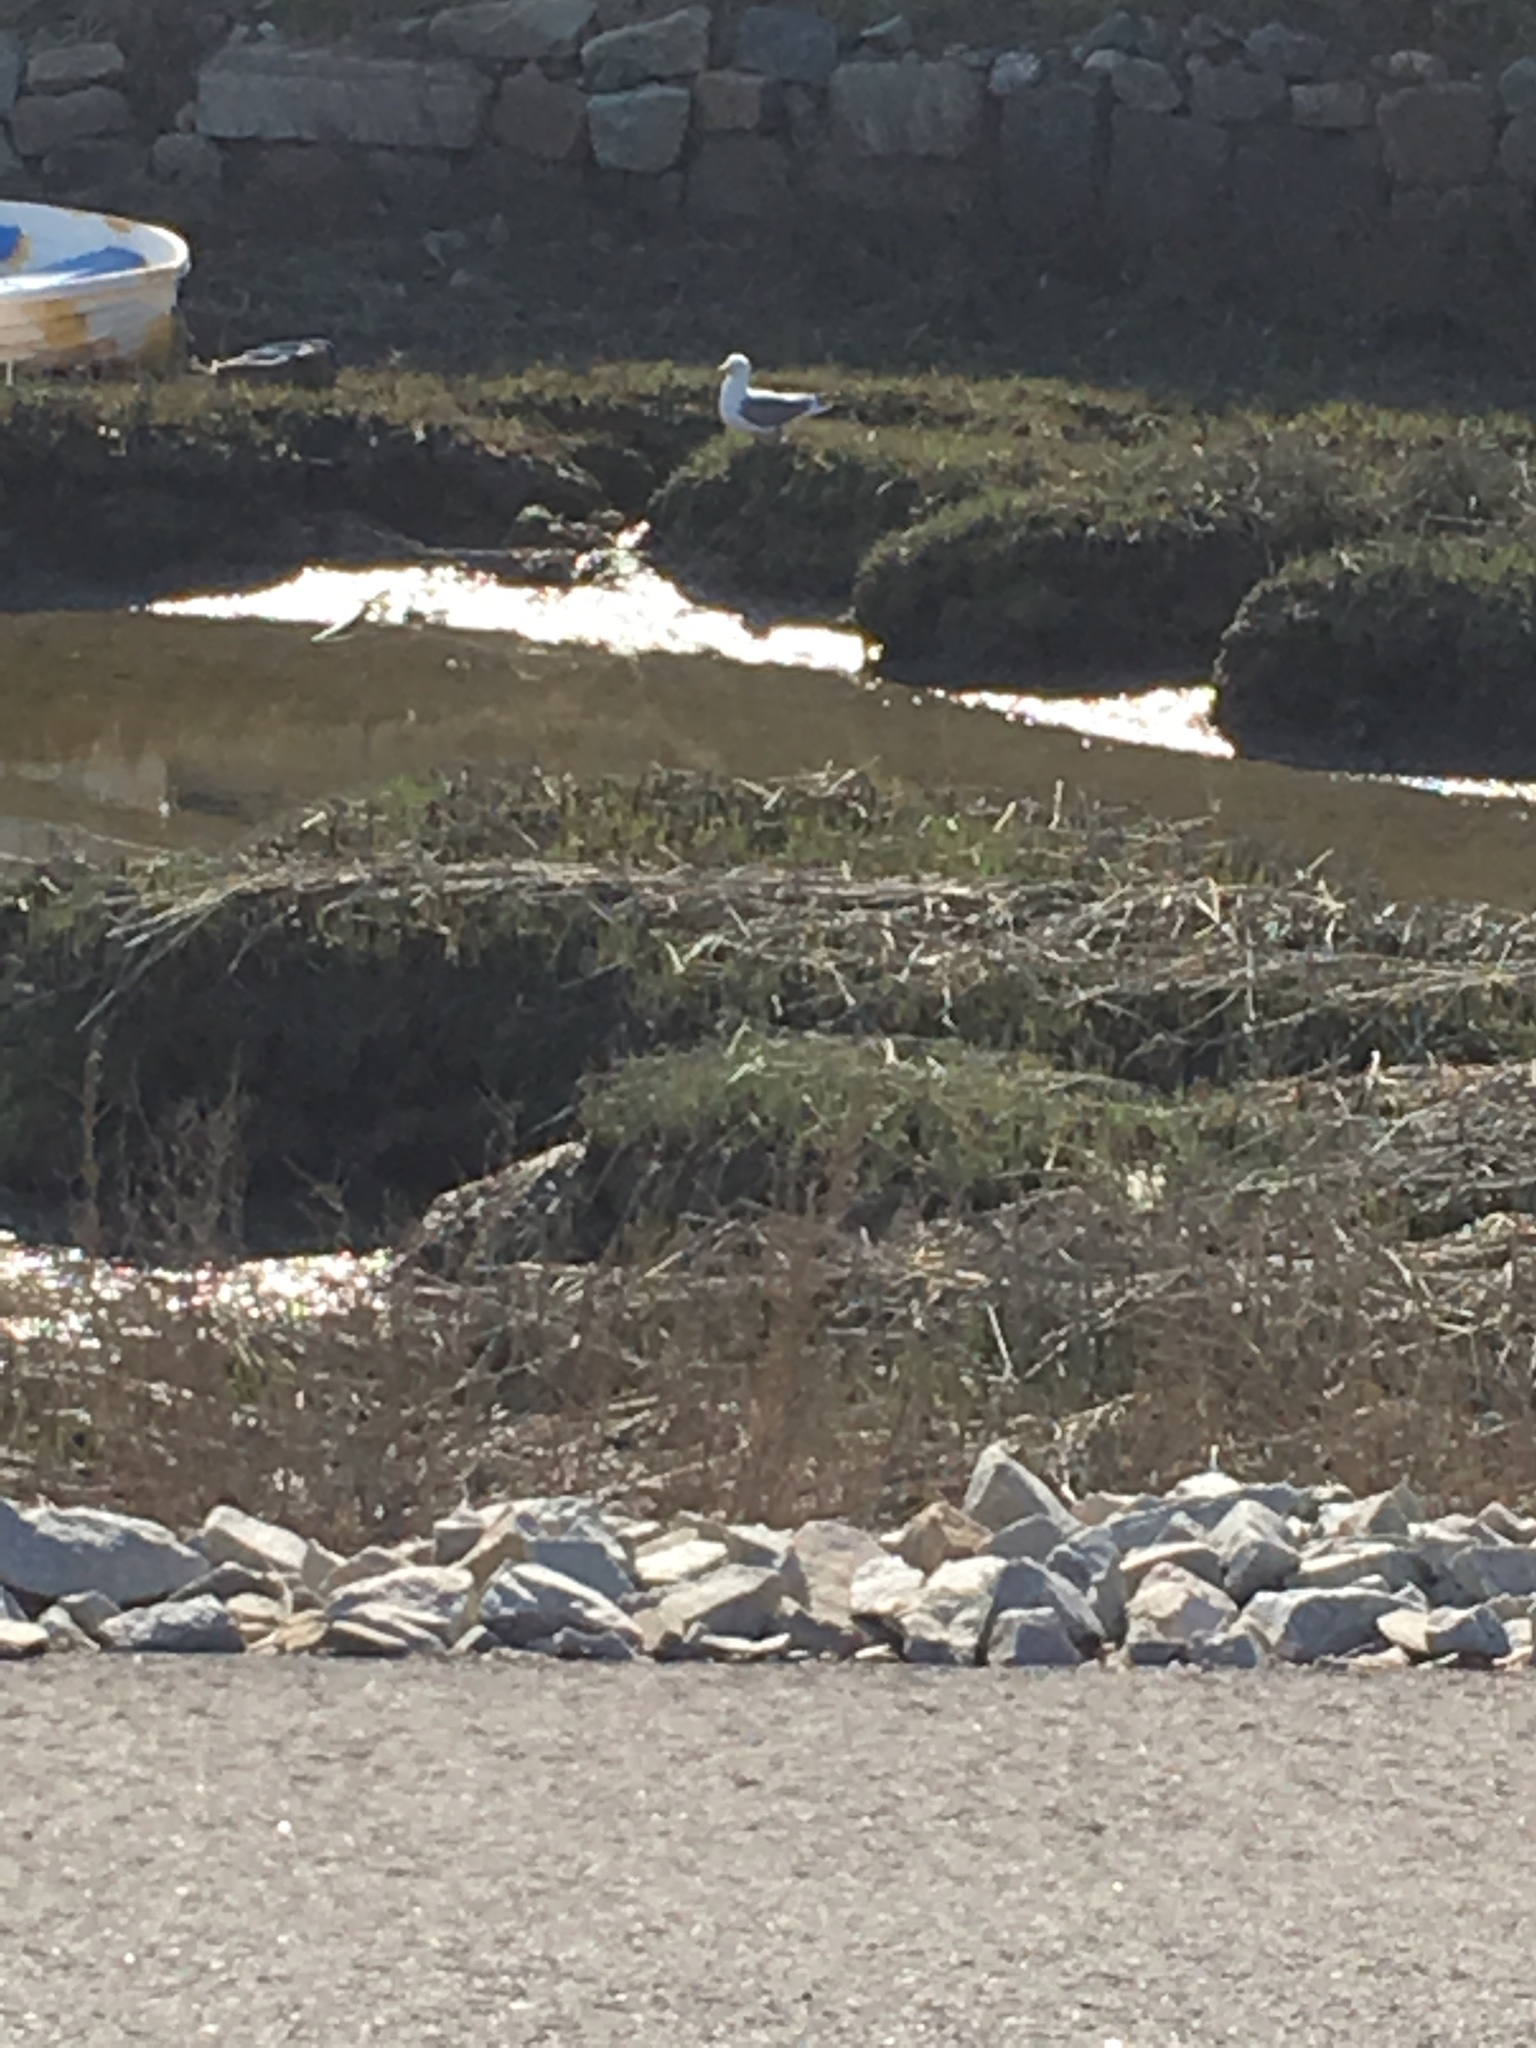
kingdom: Animalia
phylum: Chordata
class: Aves
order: Charadriiformes
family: Laridae
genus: Larus
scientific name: Larus argentatus
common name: Herring gull
